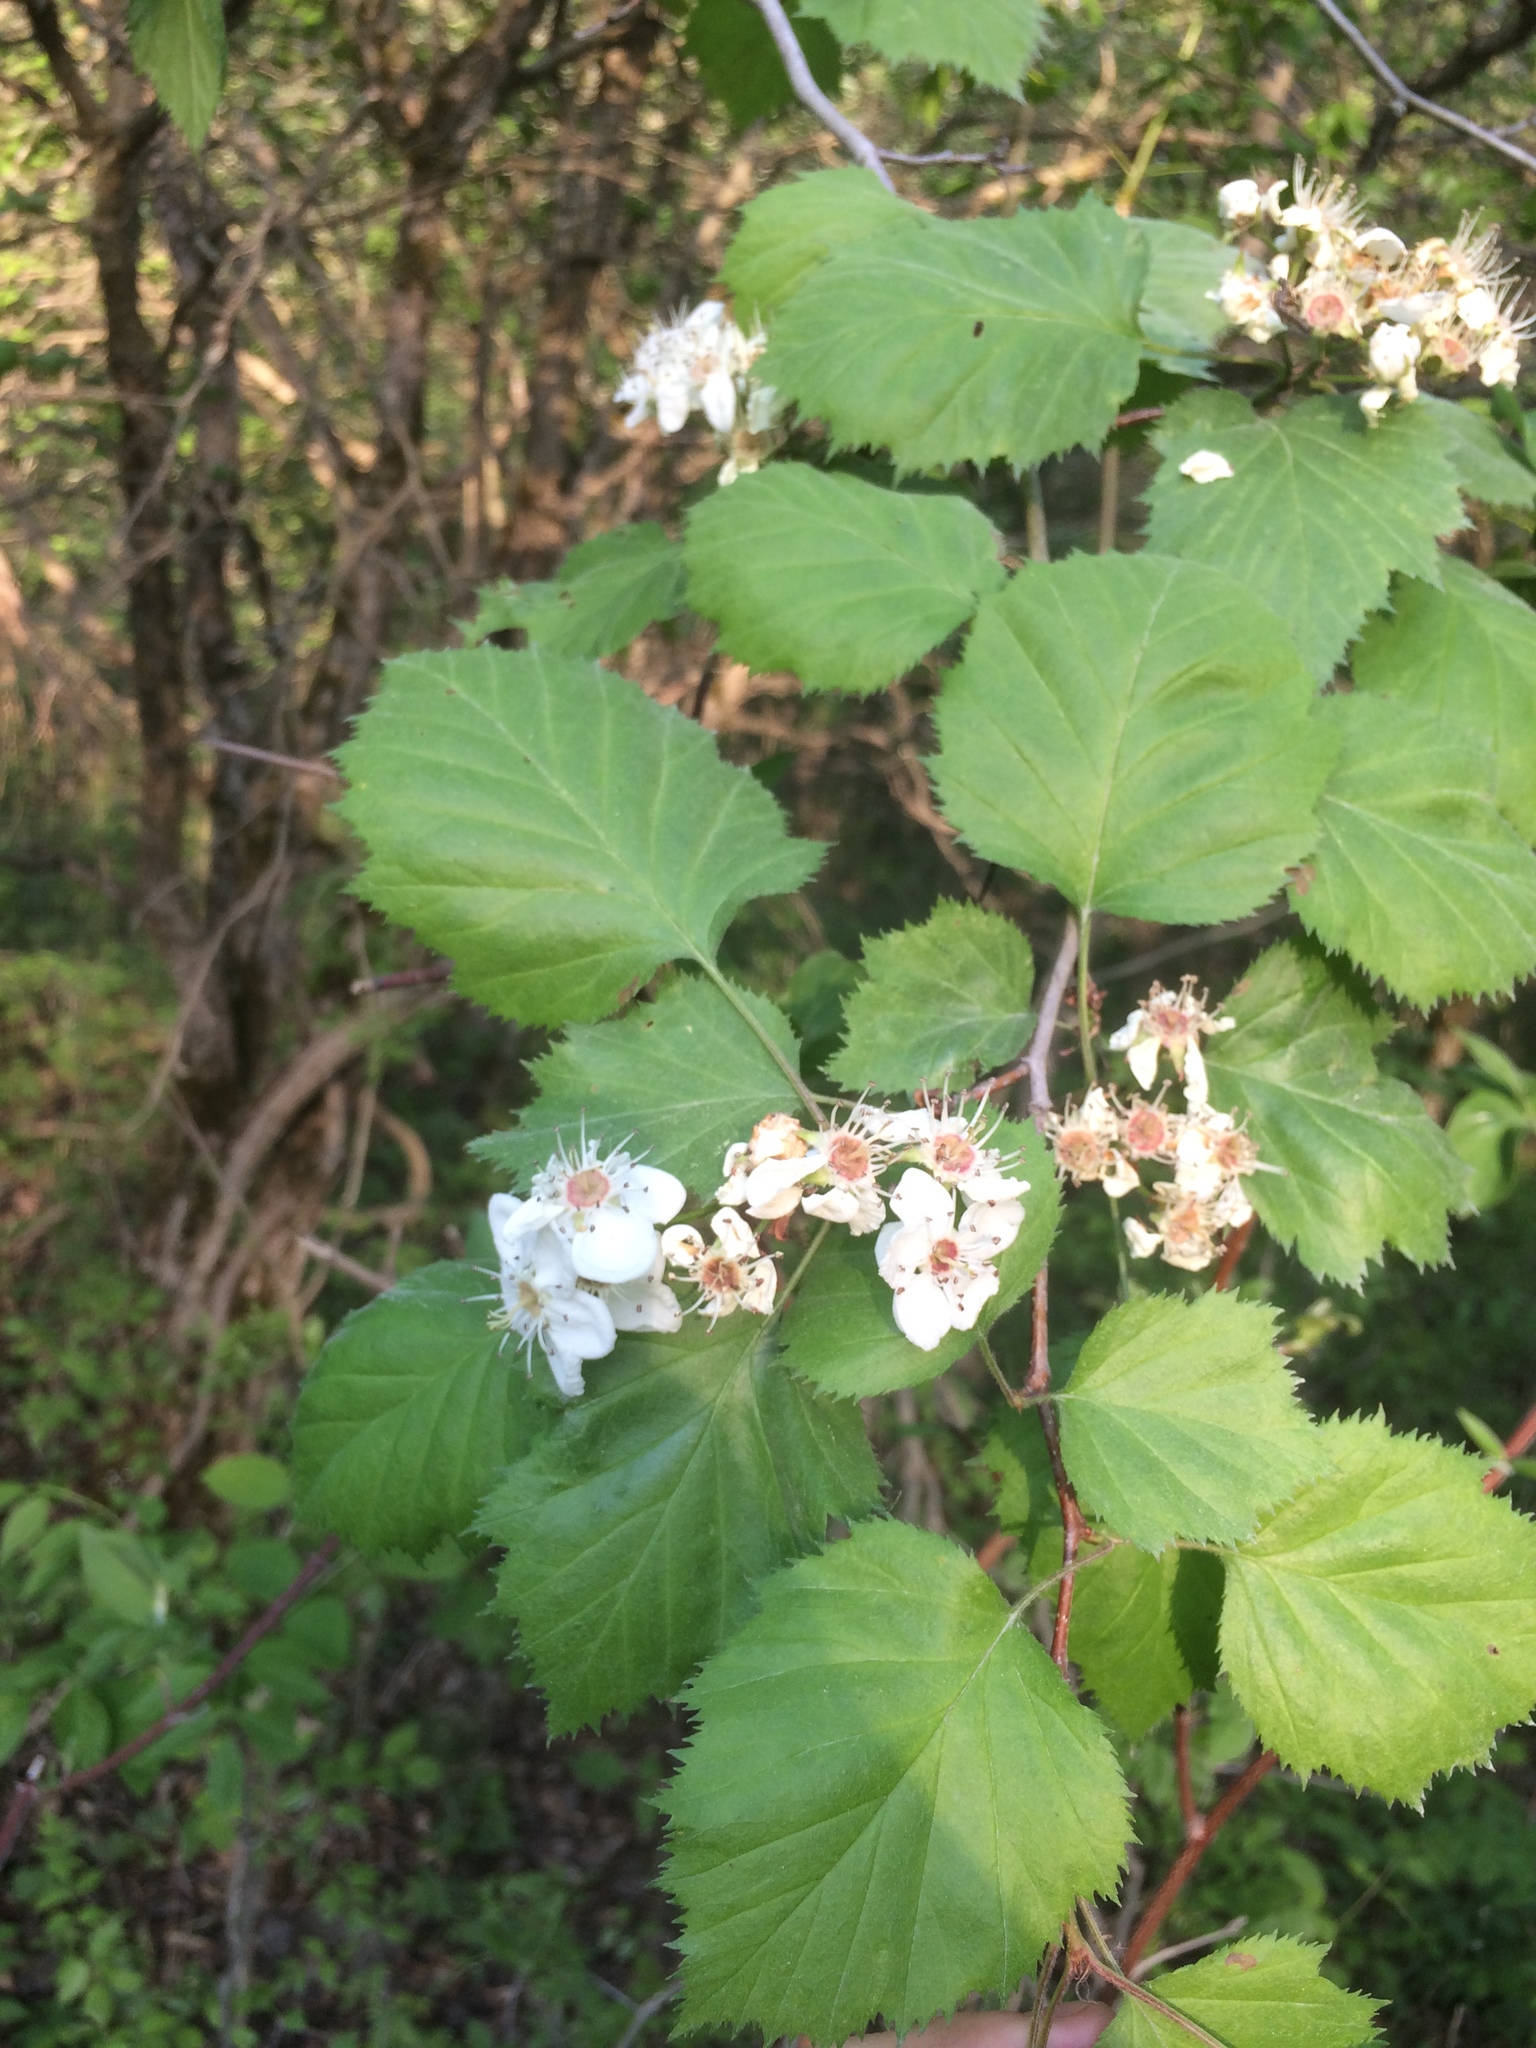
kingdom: Plantae
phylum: Tracheophyta
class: Magnoliopsida
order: Rosales
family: Rosaceae
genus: Crataegus
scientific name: Crataegus coccinioides
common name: Large-flowered cockspurthorn
